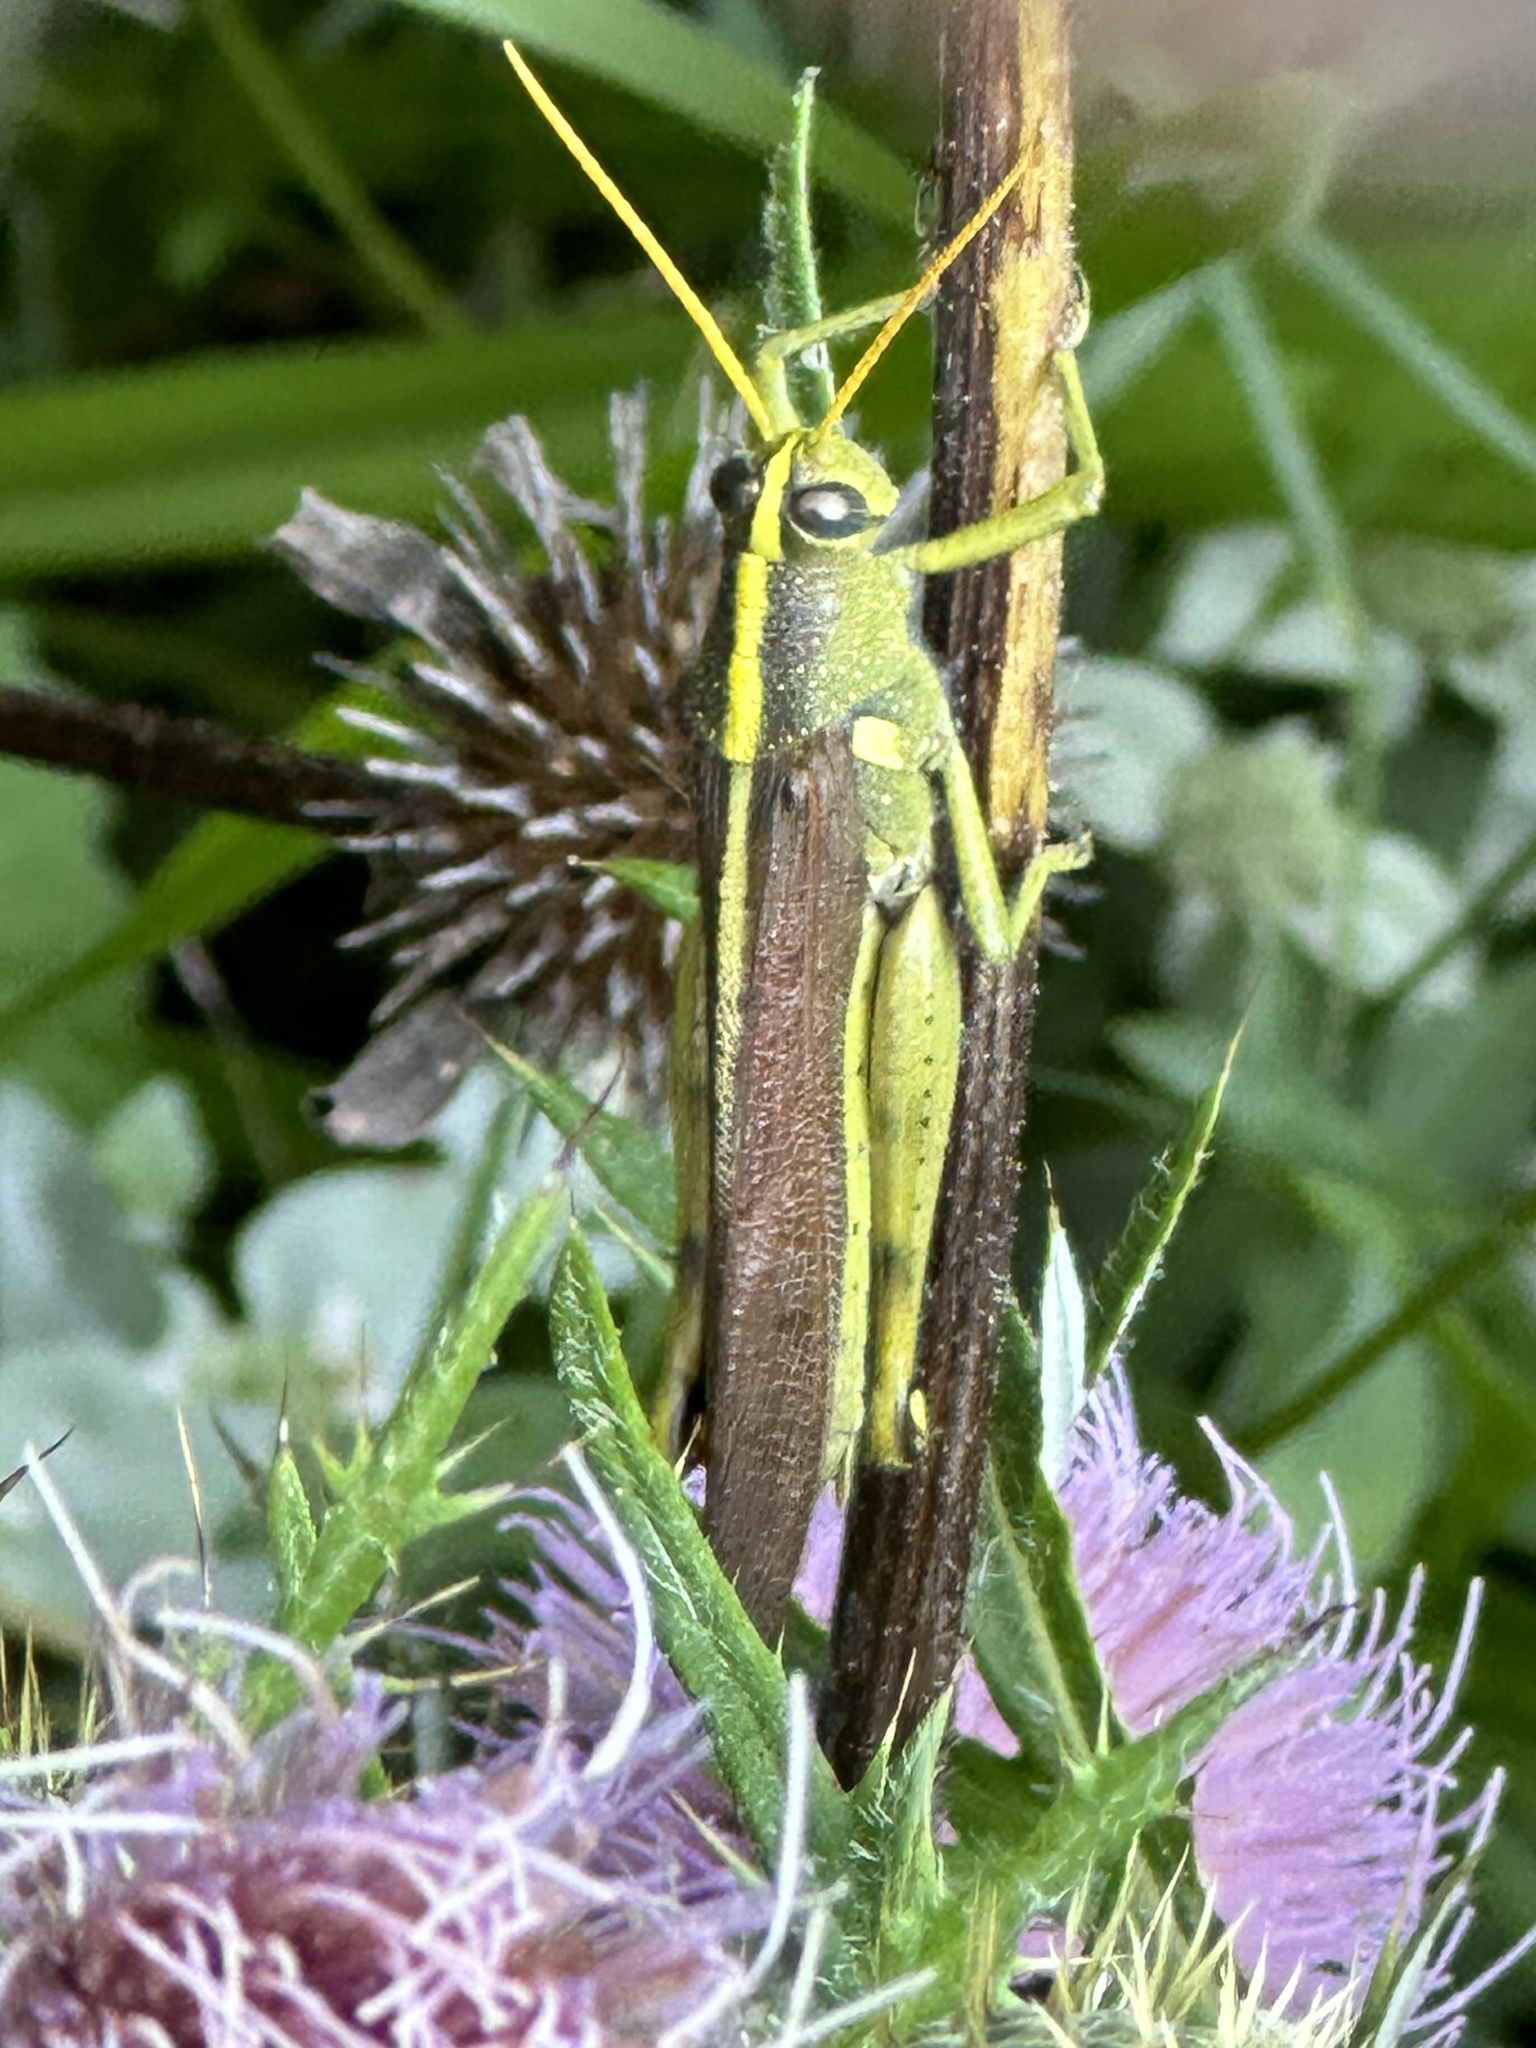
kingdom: Animalia
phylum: Arthropoda
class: Insecta
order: Orthoptera
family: Acrididae
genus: Schistocerca
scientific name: Schistocerca obscura
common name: Obscure bird grasshopper
